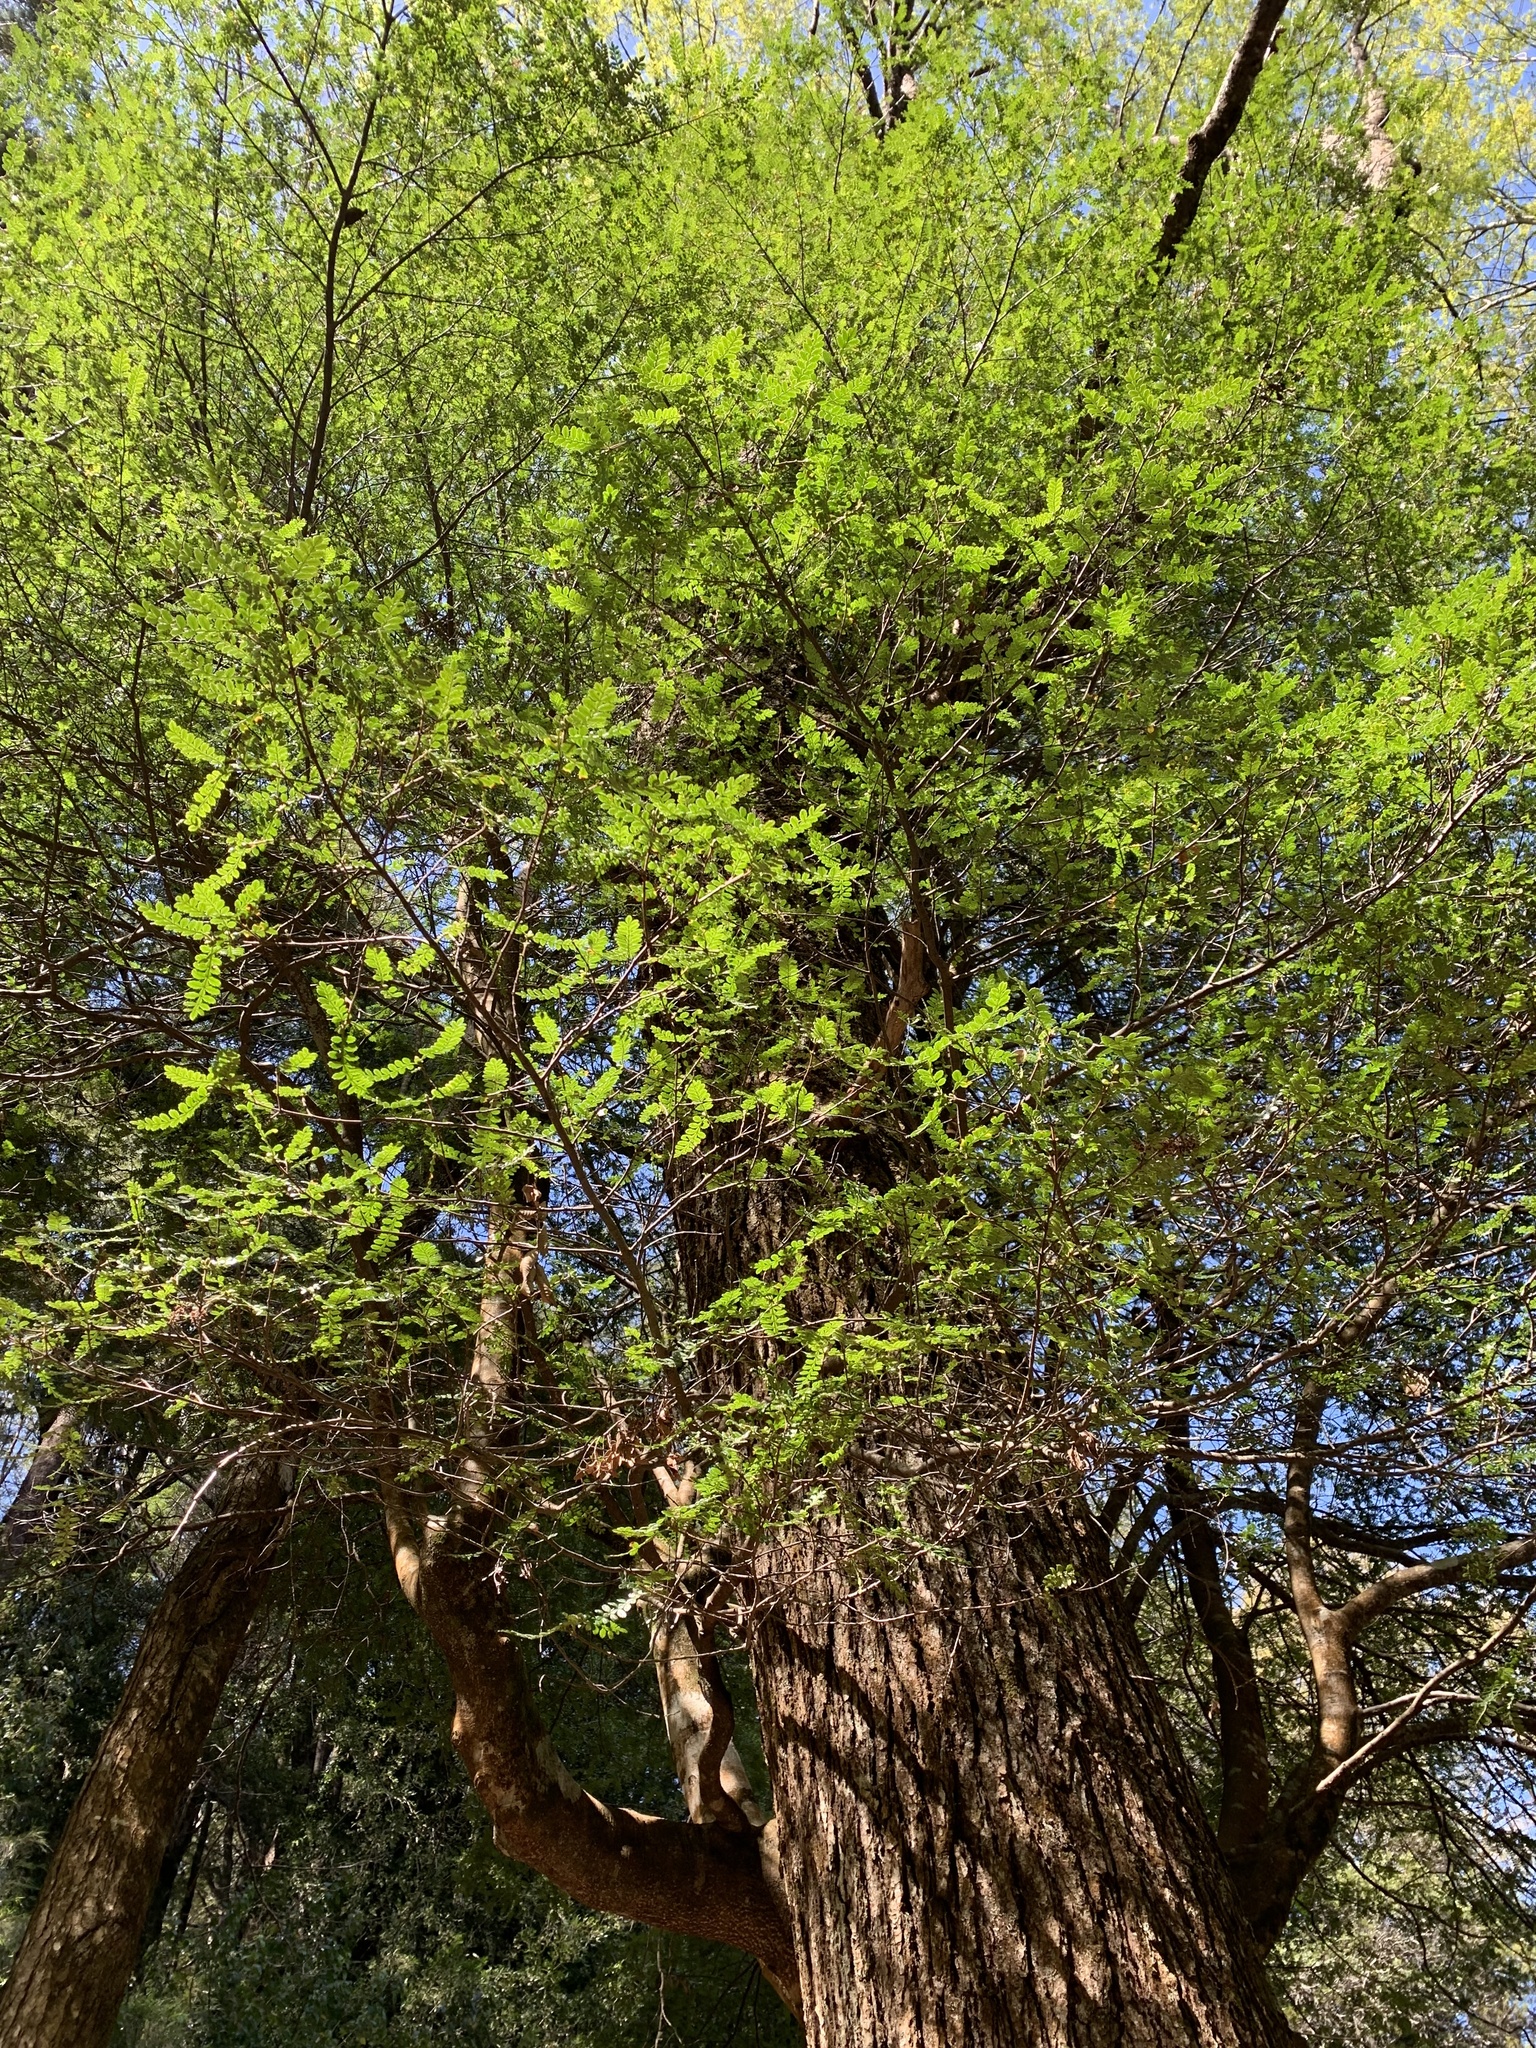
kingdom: Plantae
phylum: Tracheophyta
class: Magnoliopsida
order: Oxalidales
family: Cunoniaceae
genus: Weinmannia
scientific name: Weinmannia trichosperma
